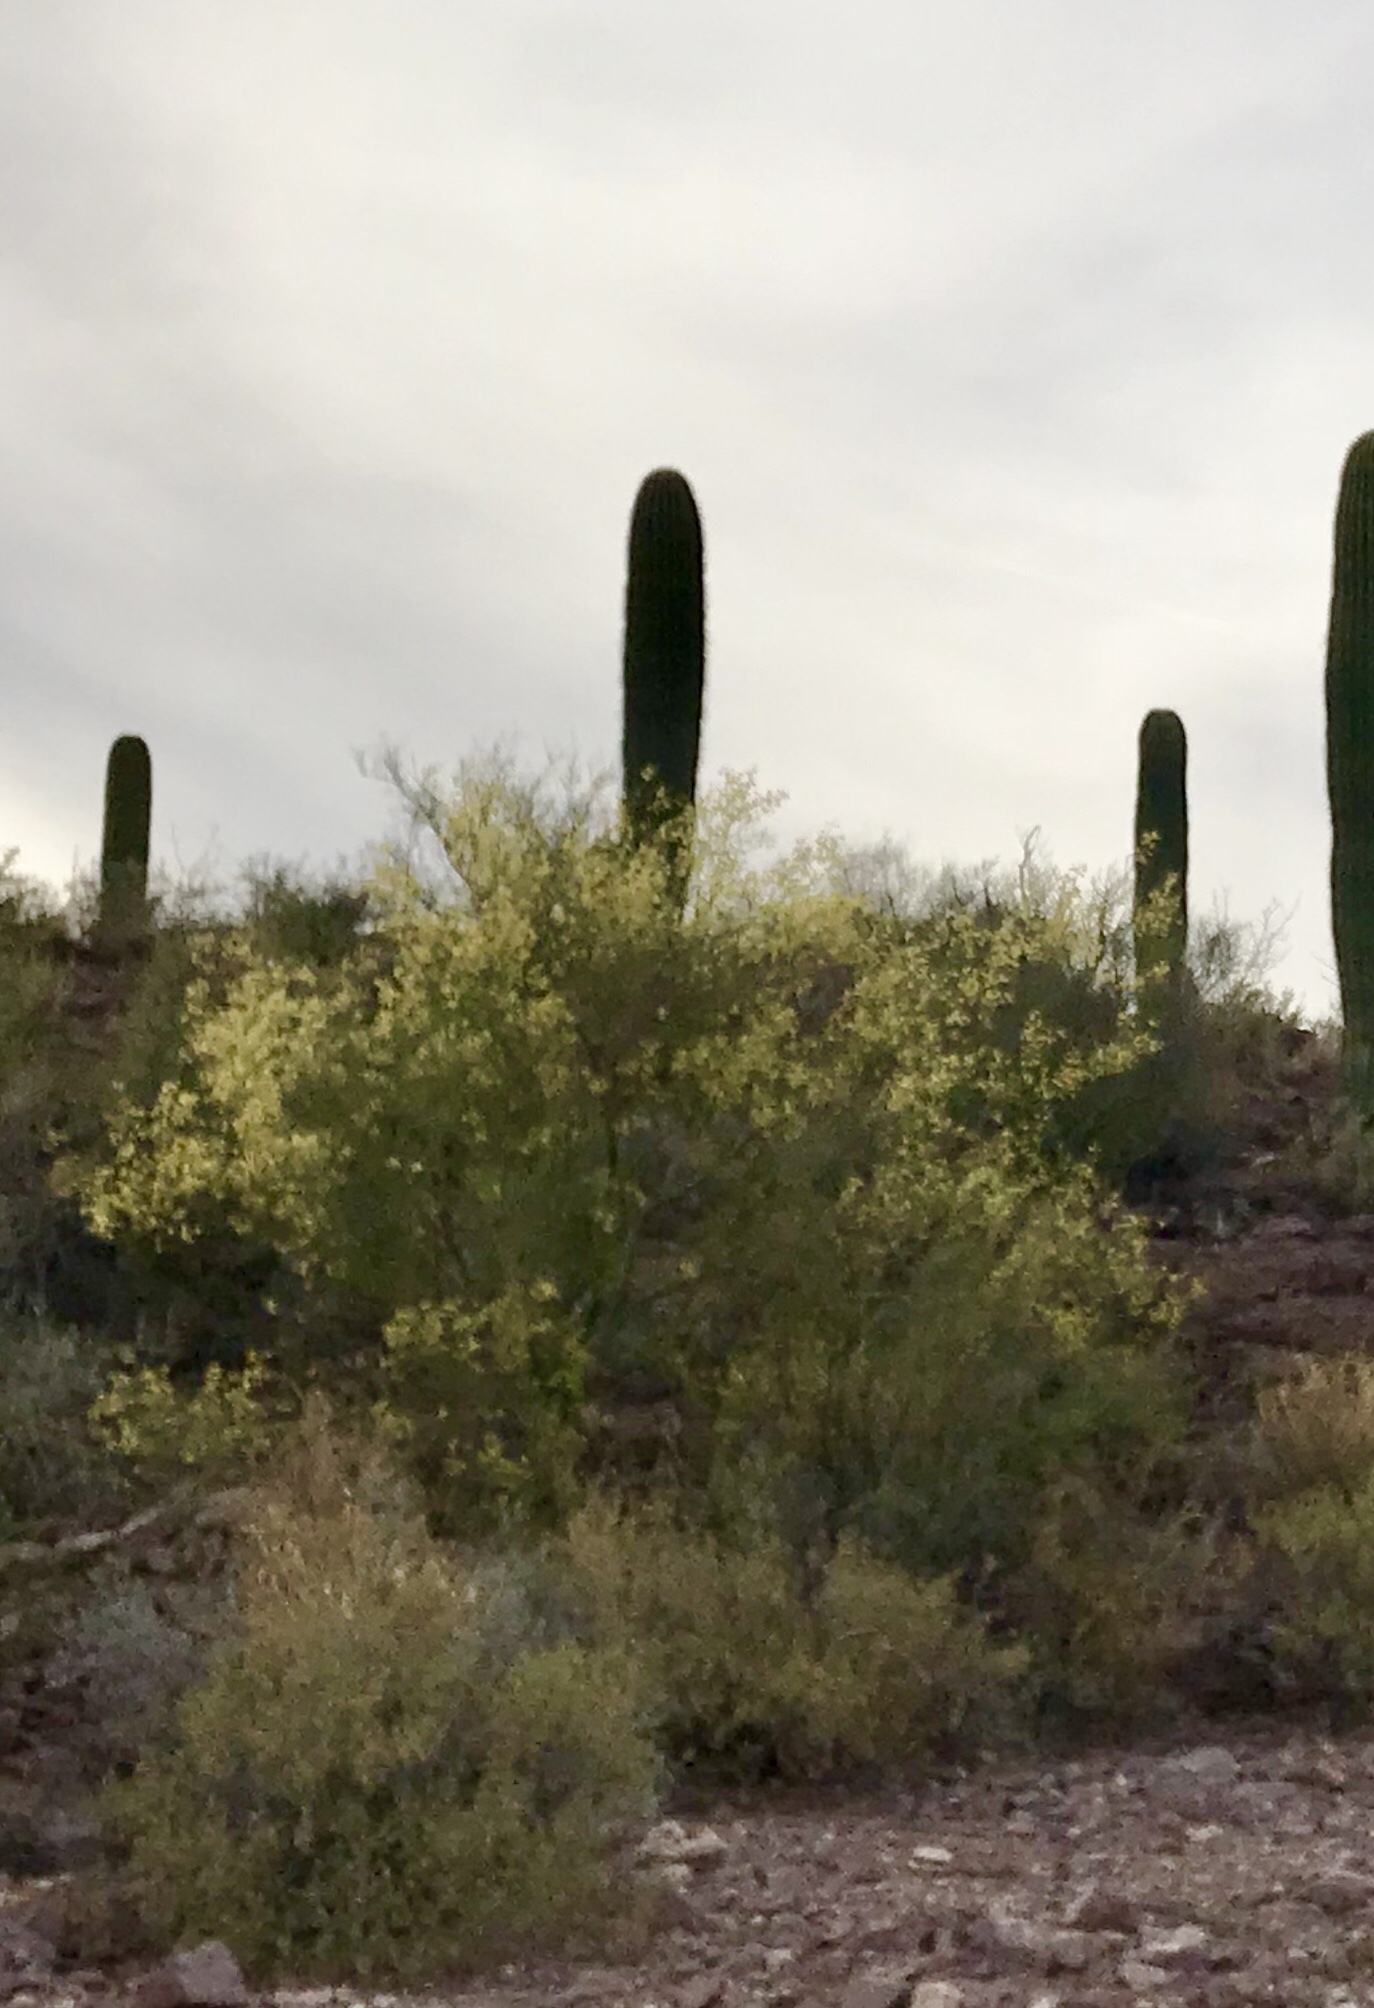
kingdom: Plantae
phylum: Tracheophyta
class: Magnoliopsida
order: Fabales
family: Fabaceae
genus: Parkinsonia
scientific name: Parkinsonia microphylla
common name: Yellow paloverde
